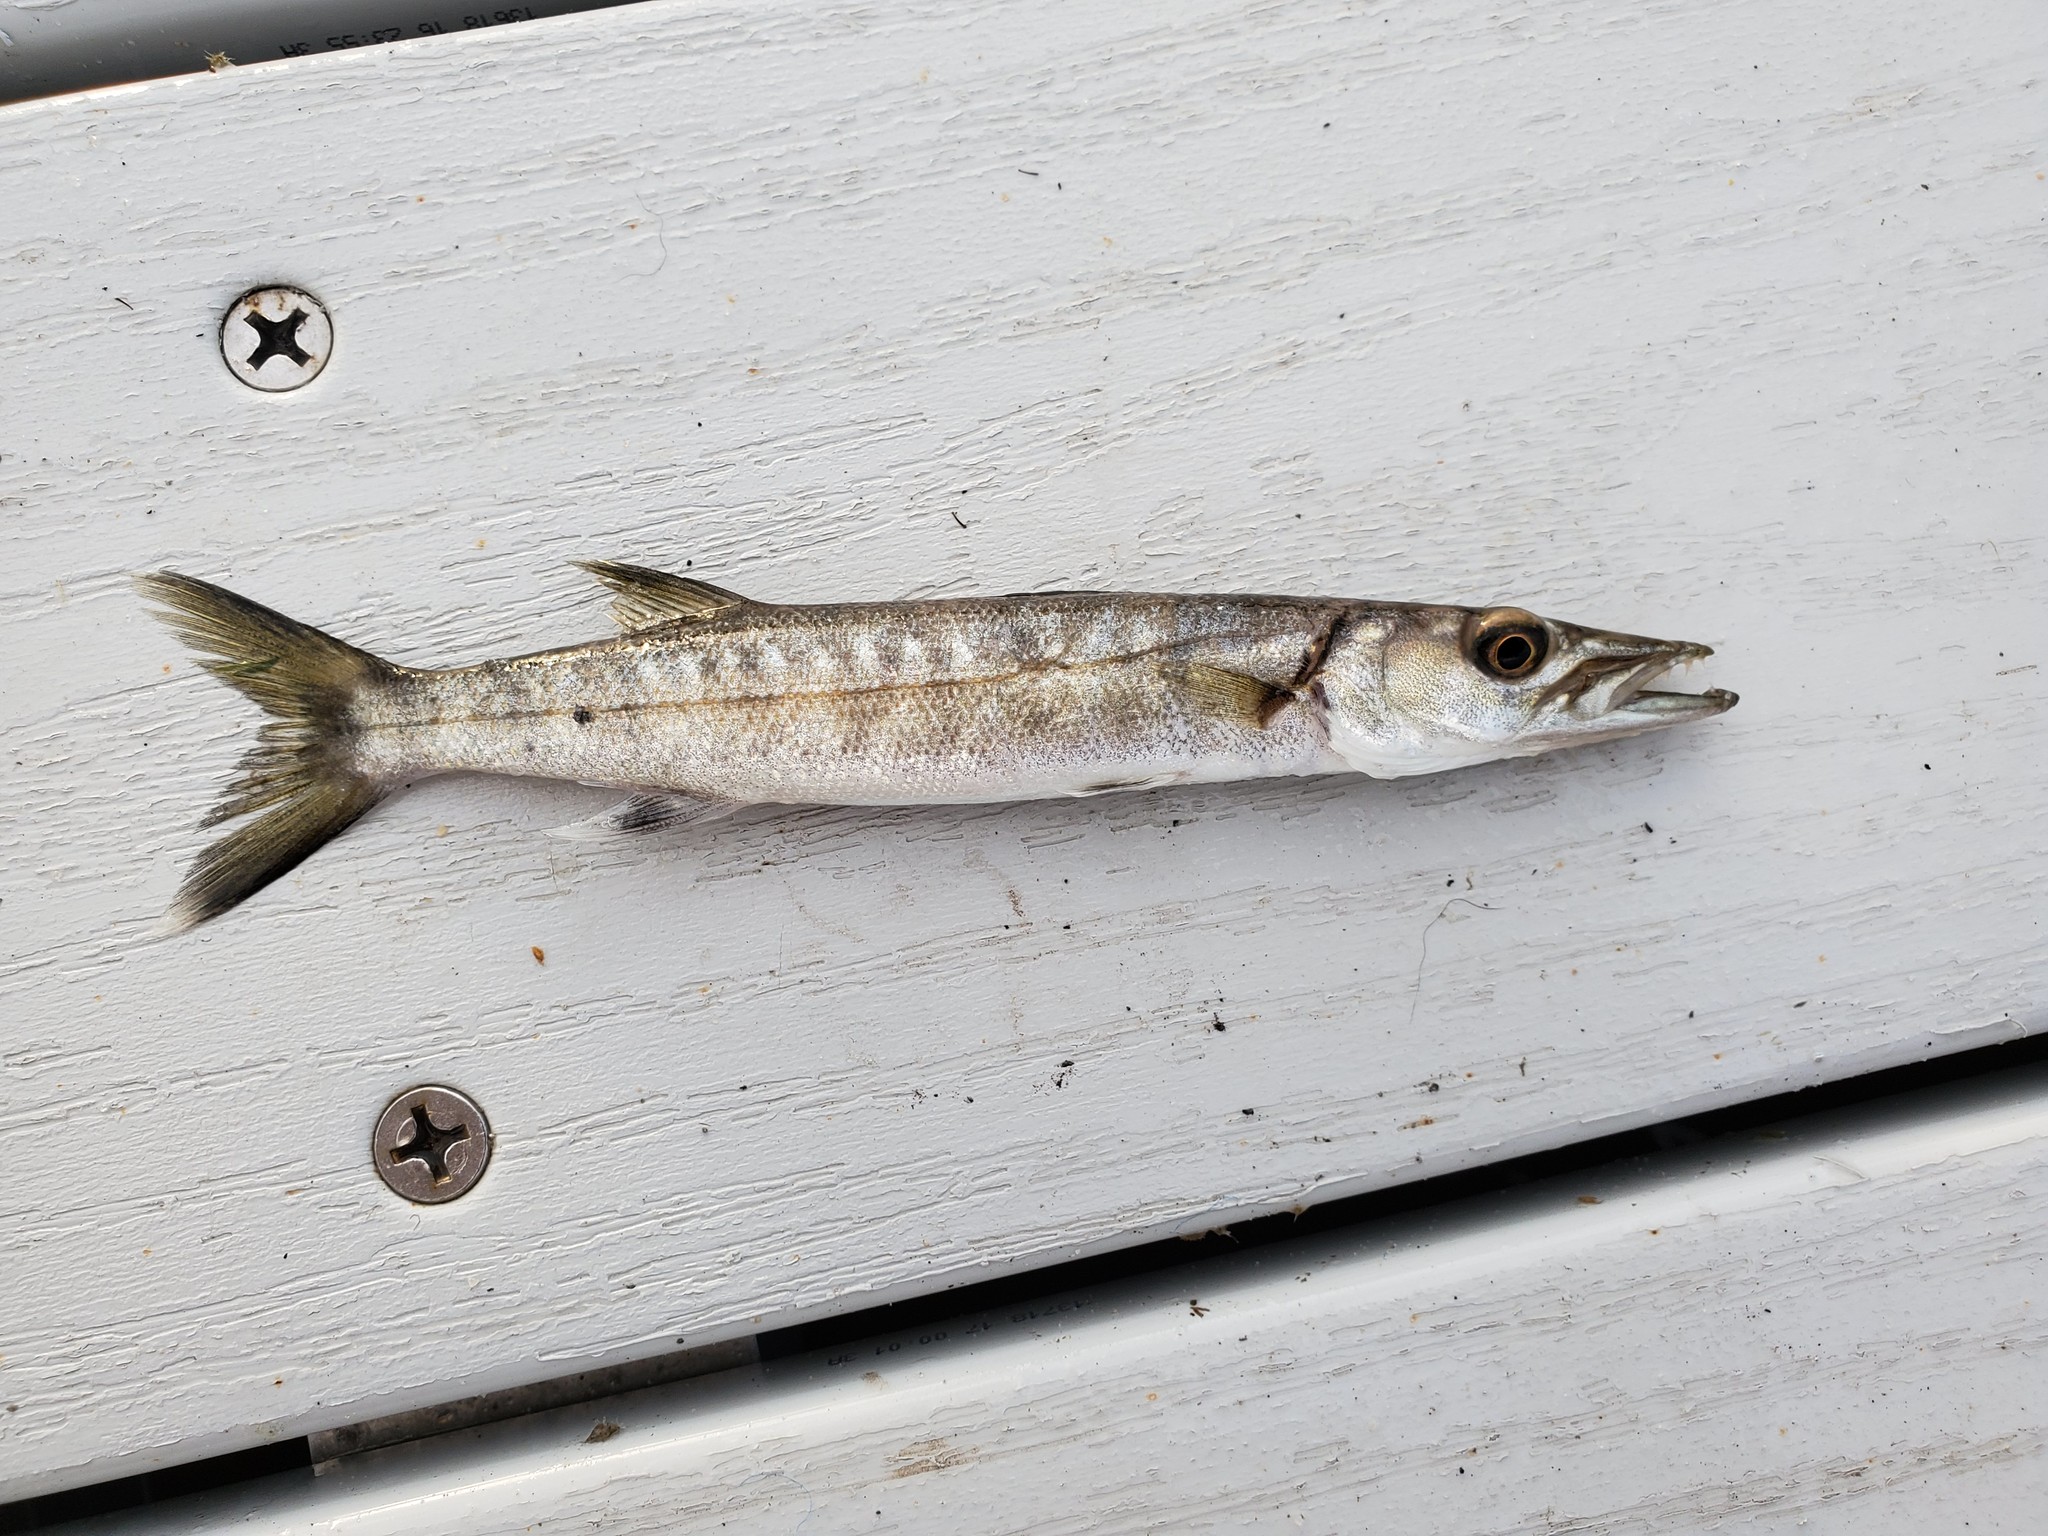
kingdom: Animalia
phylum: Chordata
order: Perciformes
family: Sphyraenidae
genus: Sphyraena
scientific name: Sphyraena barracuda
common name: Great barracuda
